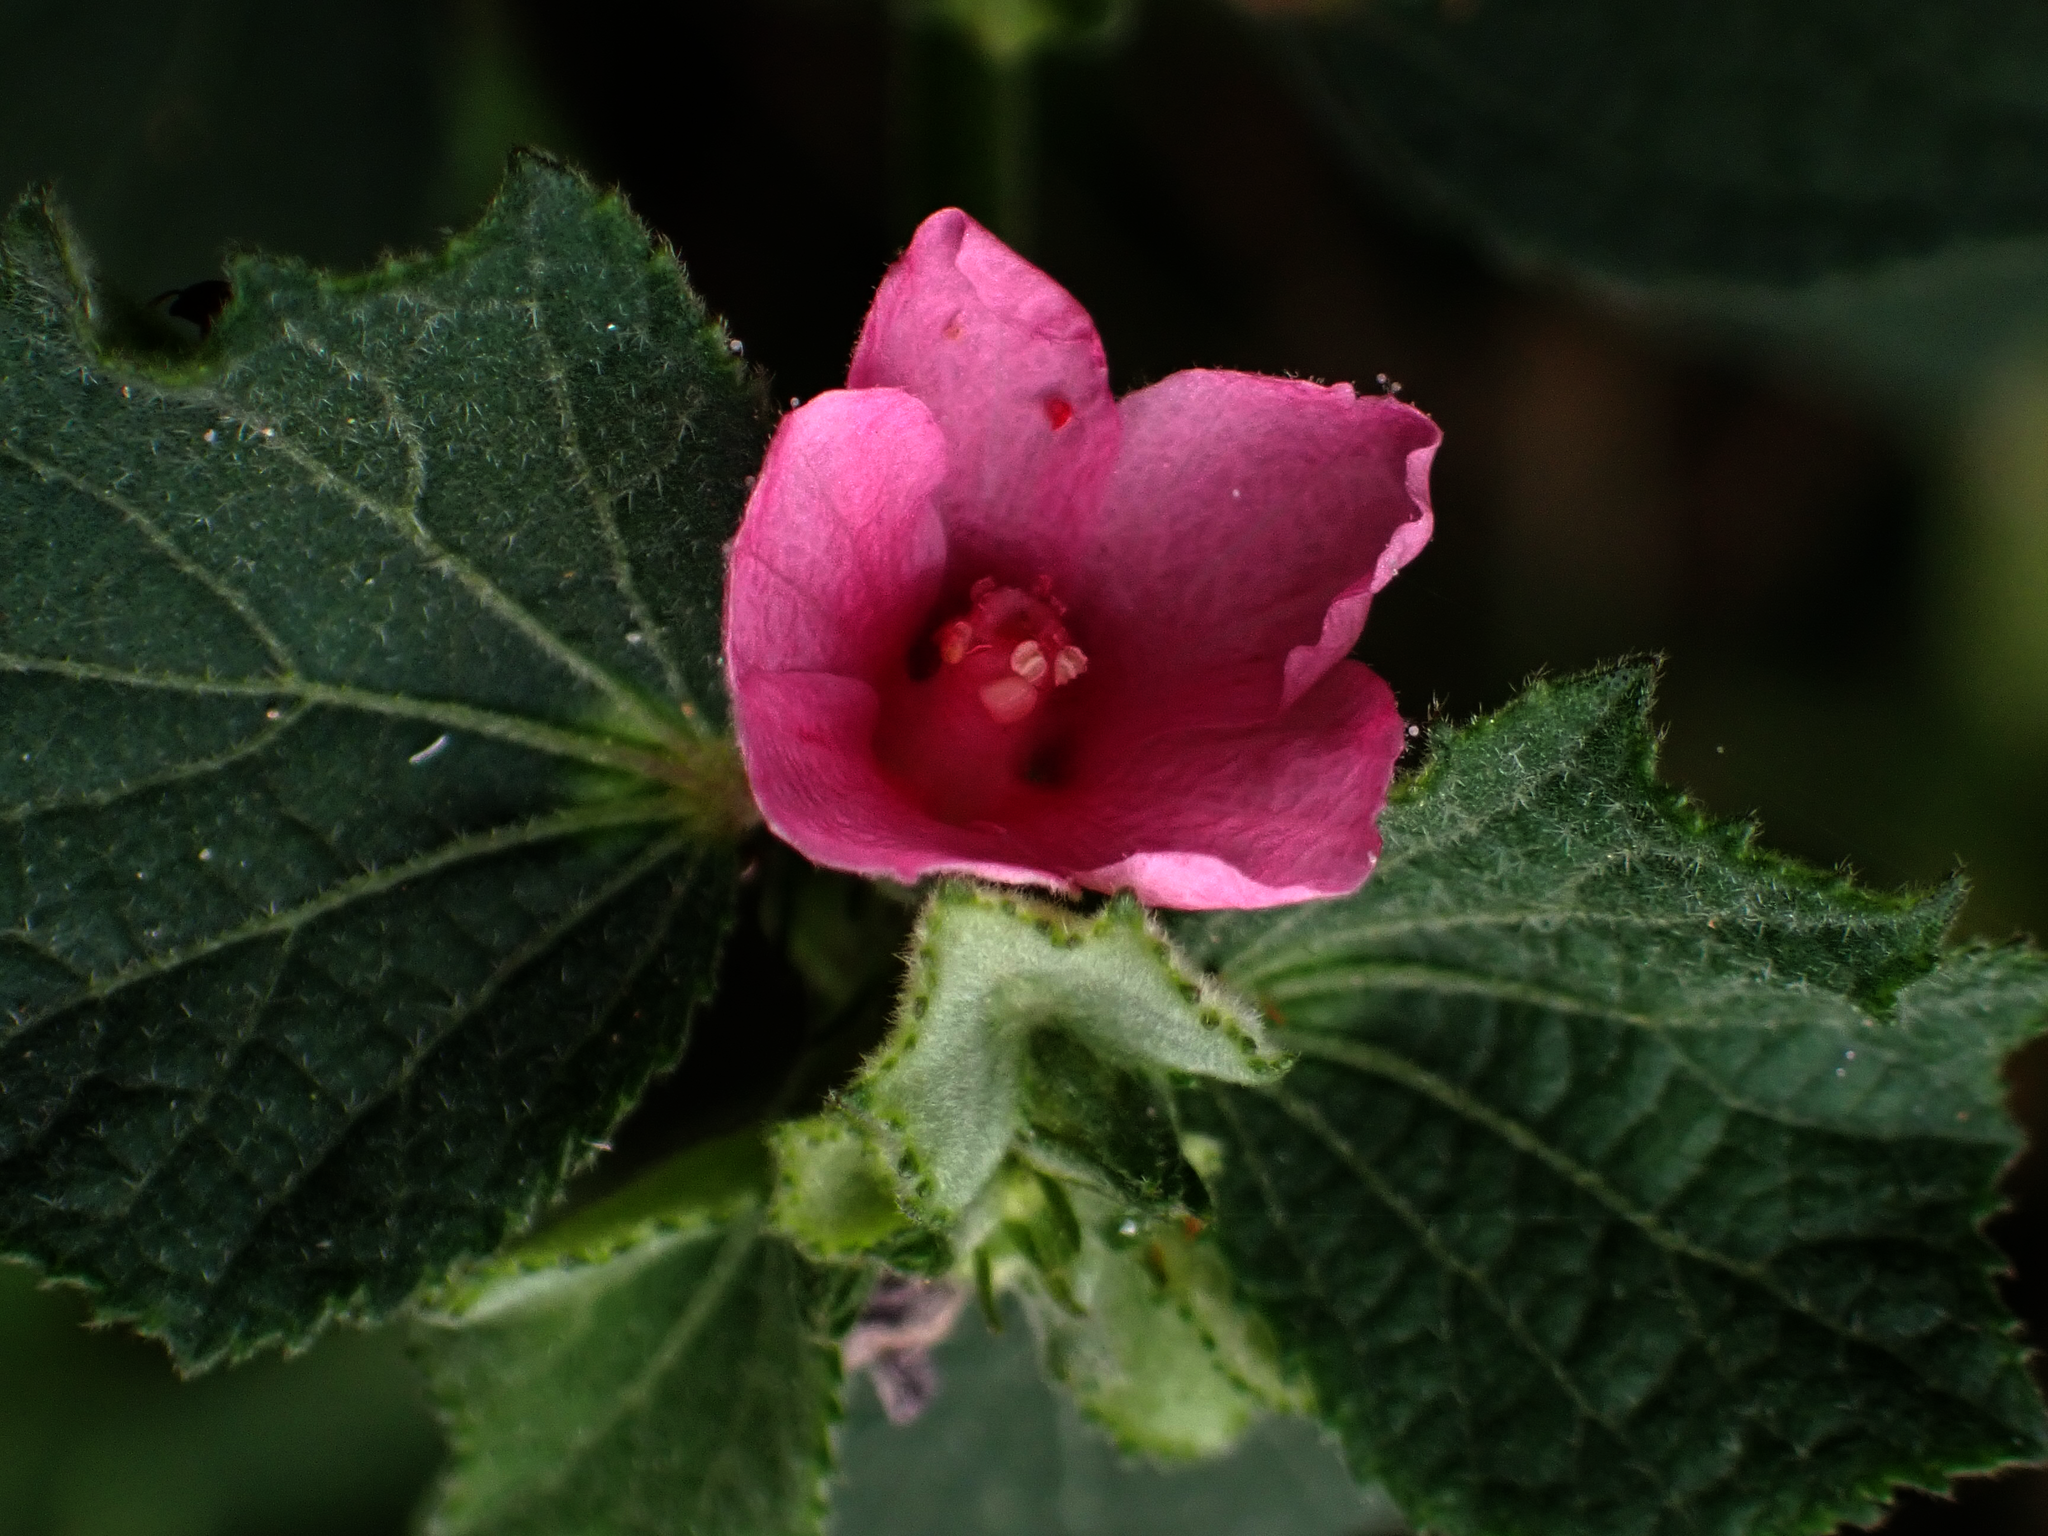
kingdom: Plantae
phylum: Tracheophyta
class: Magnoliopsida
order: Malvales
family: Malvaceae
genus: Urena
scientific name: Urena lobata
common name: Caesarweed
